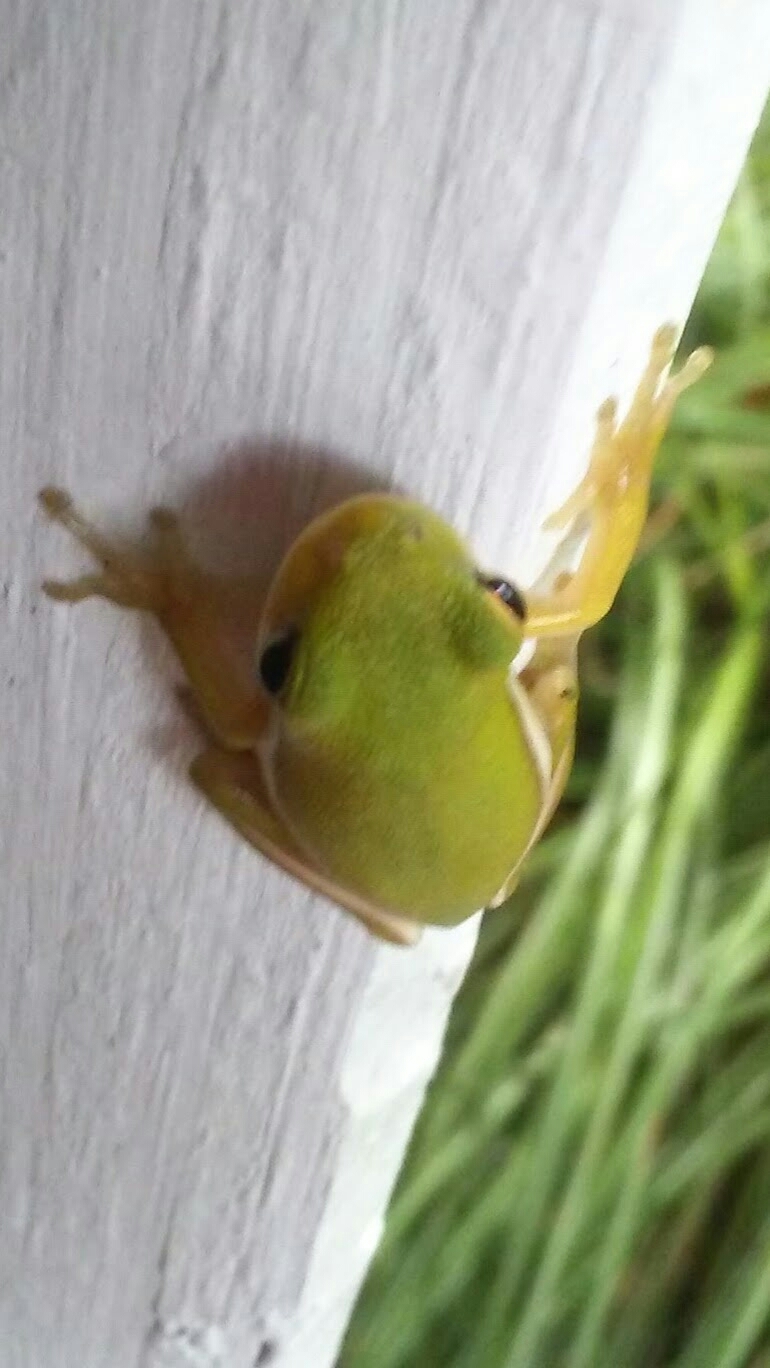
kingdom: Animalia
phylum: Chordata
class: Amphibia
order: Anura
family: Hylidae
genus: Dryophytes
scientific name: Dryophytes cinereus
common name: Green treefrog
